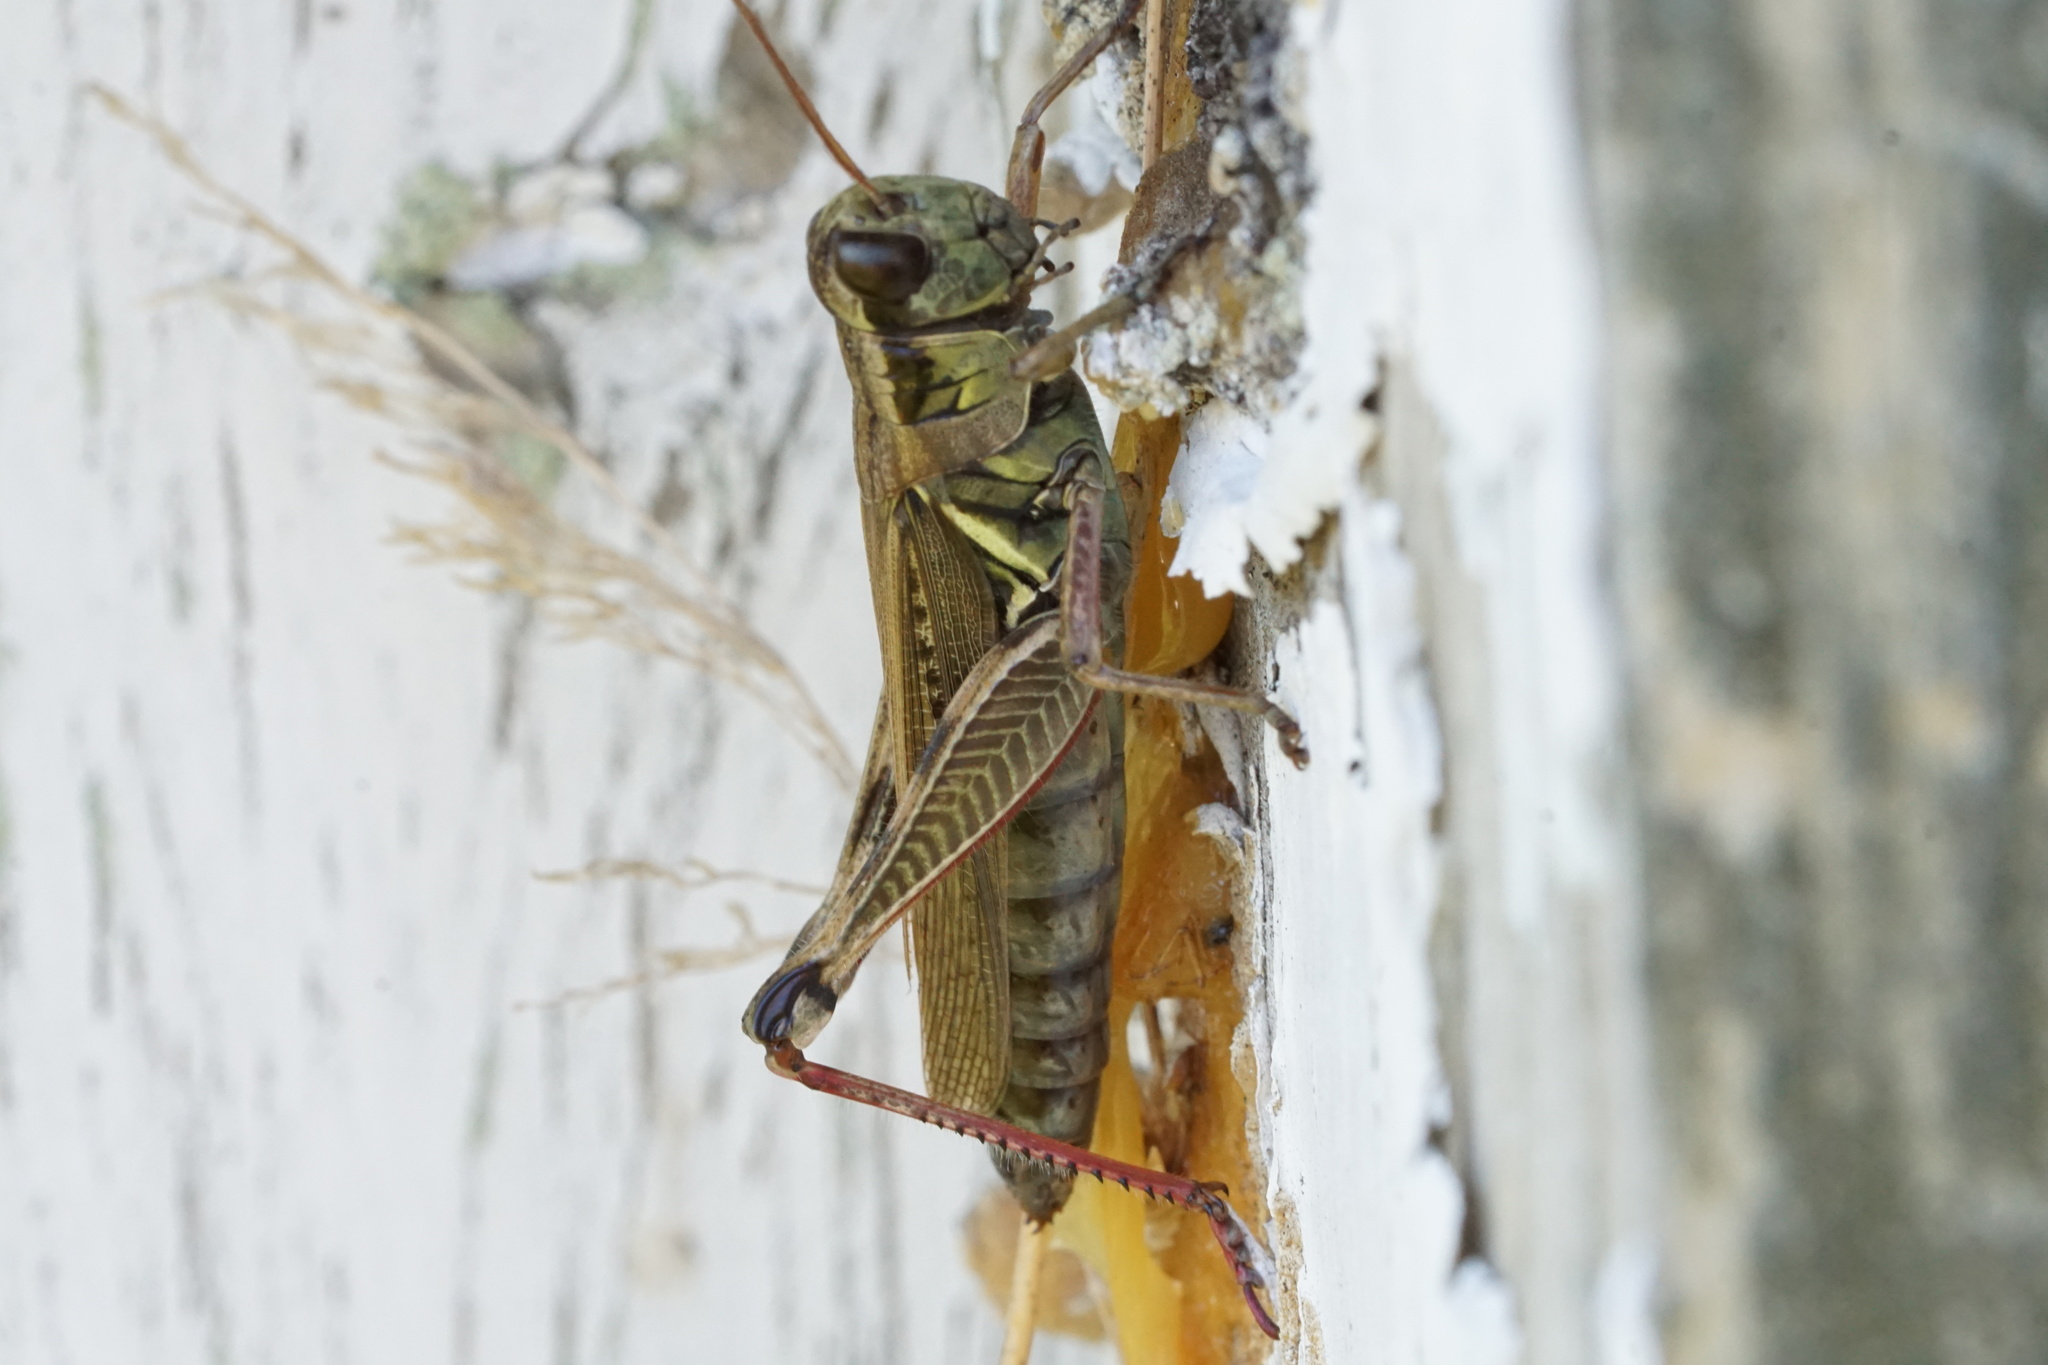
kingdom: Animalia
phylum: Arthropoda
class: Insecta
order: Orthoptera
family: Acrididae
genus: Melanoplus
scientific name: Melanoplus femurrubrum
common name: Red-legged grasshopper
